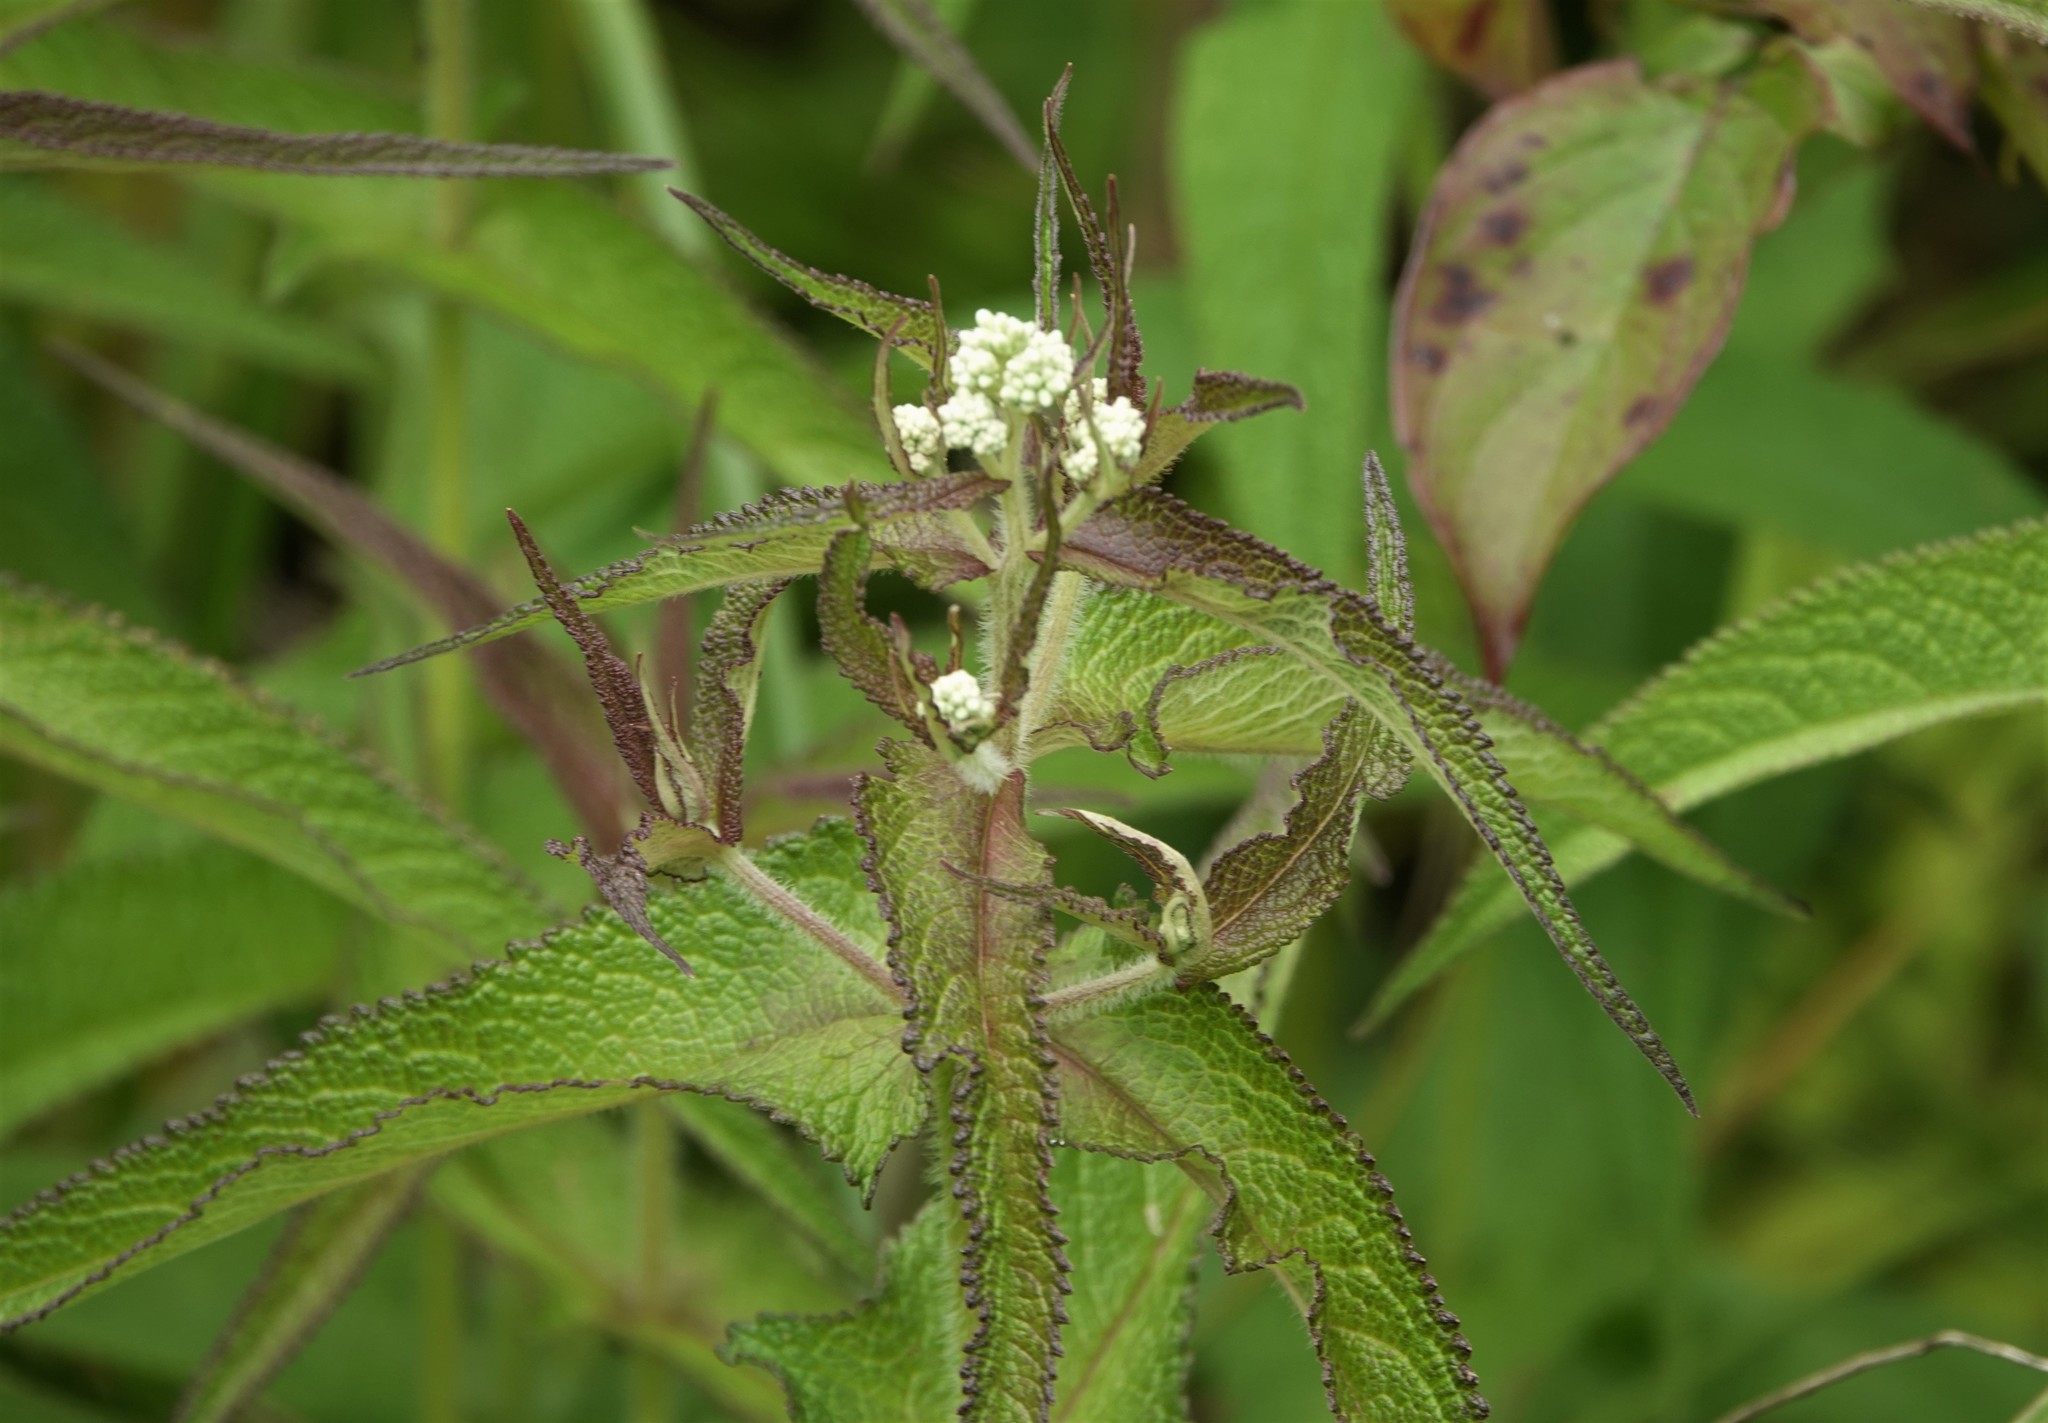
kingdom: Plantae
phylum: Tracheophyta
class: Magnoliopsida
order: Asterales
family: Asteraceae
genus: Eupatorium
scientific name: Eupatorium perfoliatum
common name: Boneset
